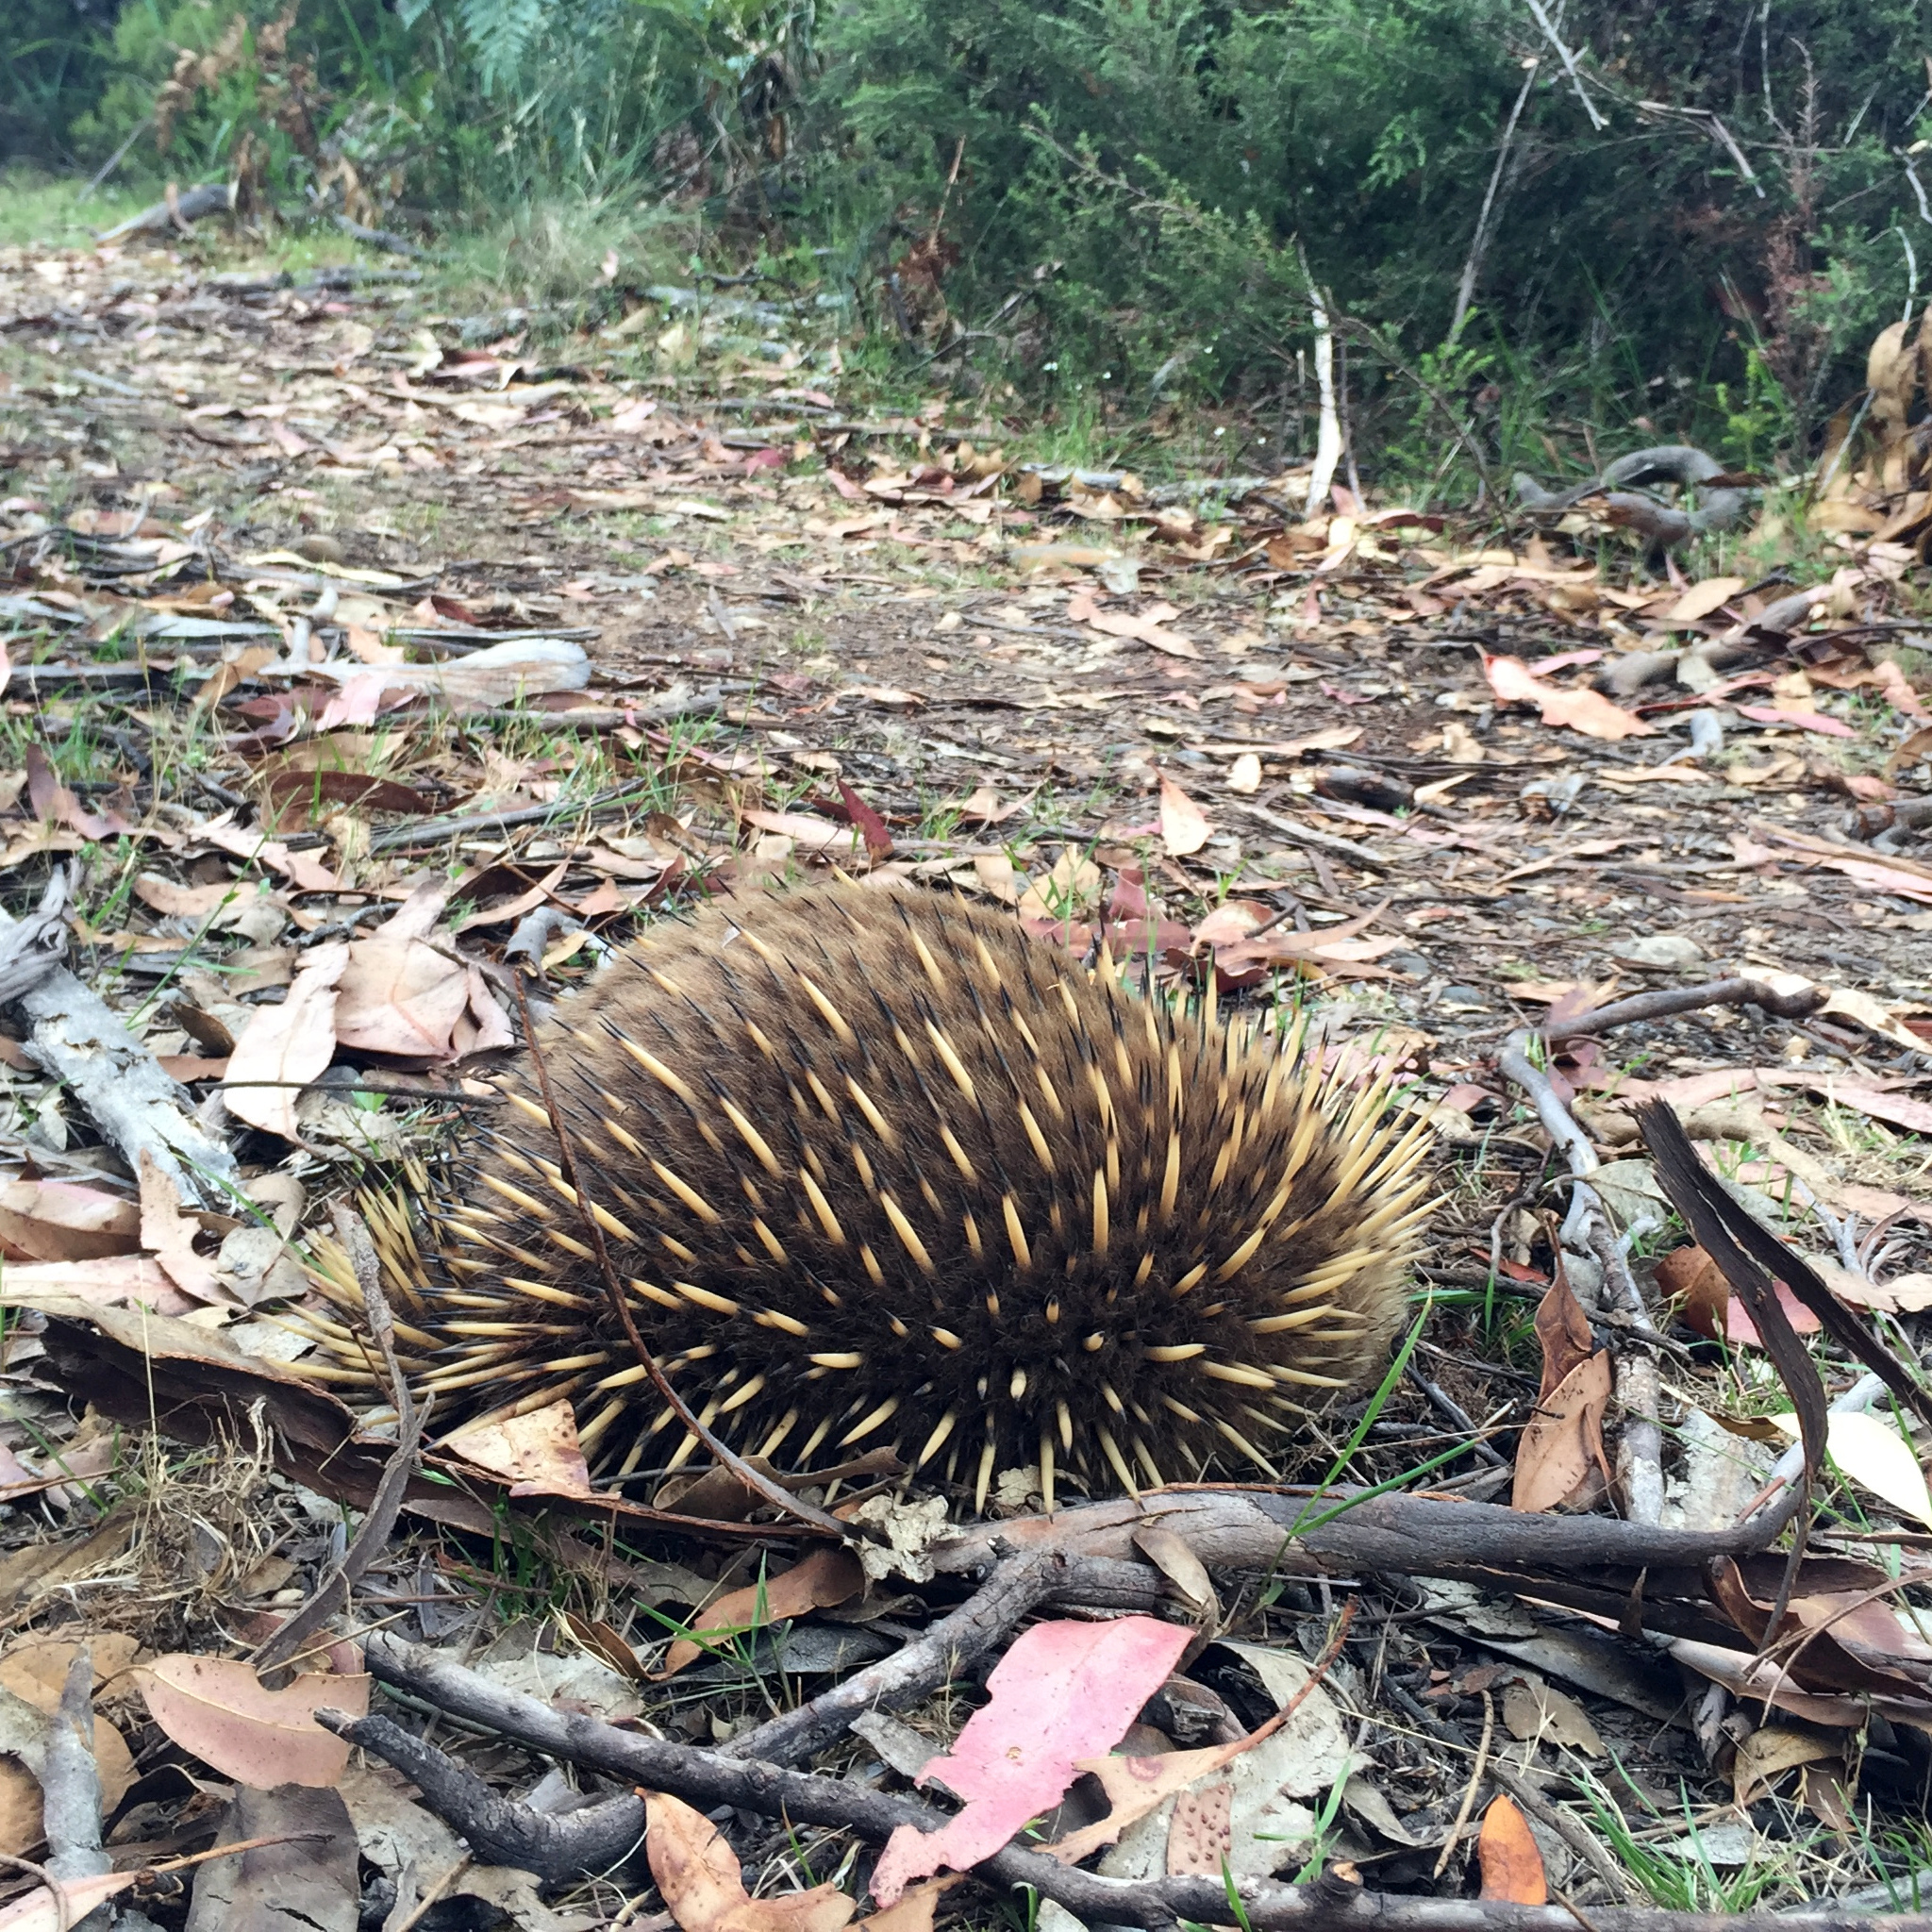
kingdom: Animalia
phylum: Chordata
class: Mammalia
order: Monotremata
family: Tachyglossidae
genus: Tachyglossus
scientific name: Tachyglossus aculeatus
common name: Short-beaked echidna
